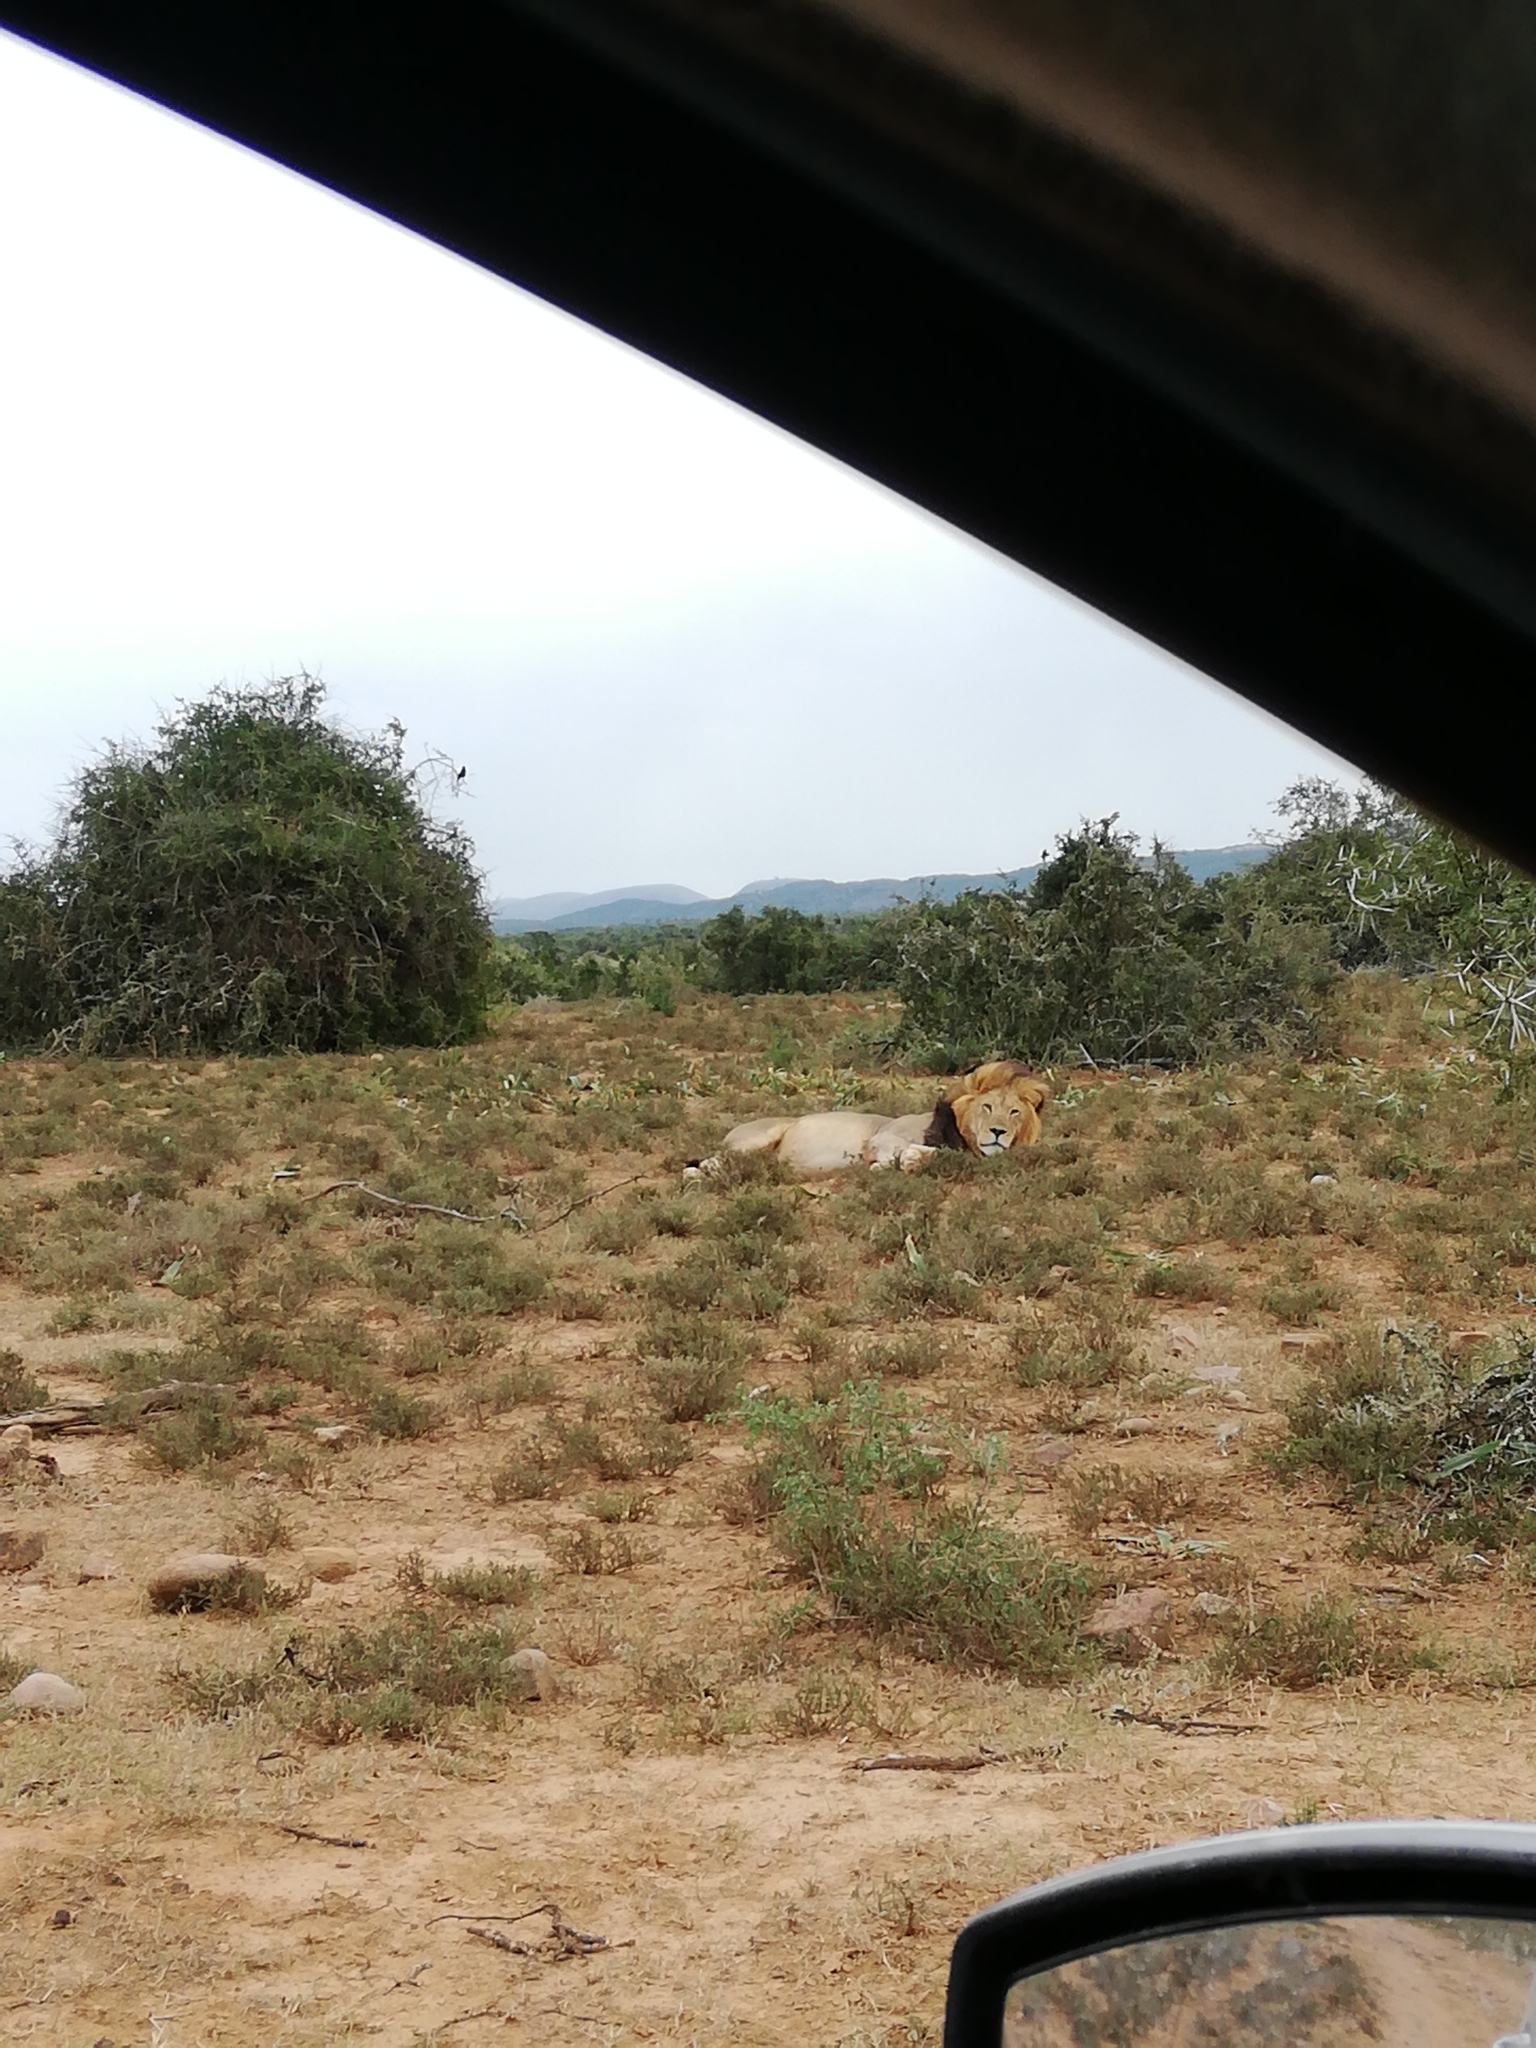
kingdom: Animalia
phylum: Chordata
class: Mammalia
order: Carnivora
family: Felidae
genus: Panthera
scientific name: Panthera leo
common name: Lion
